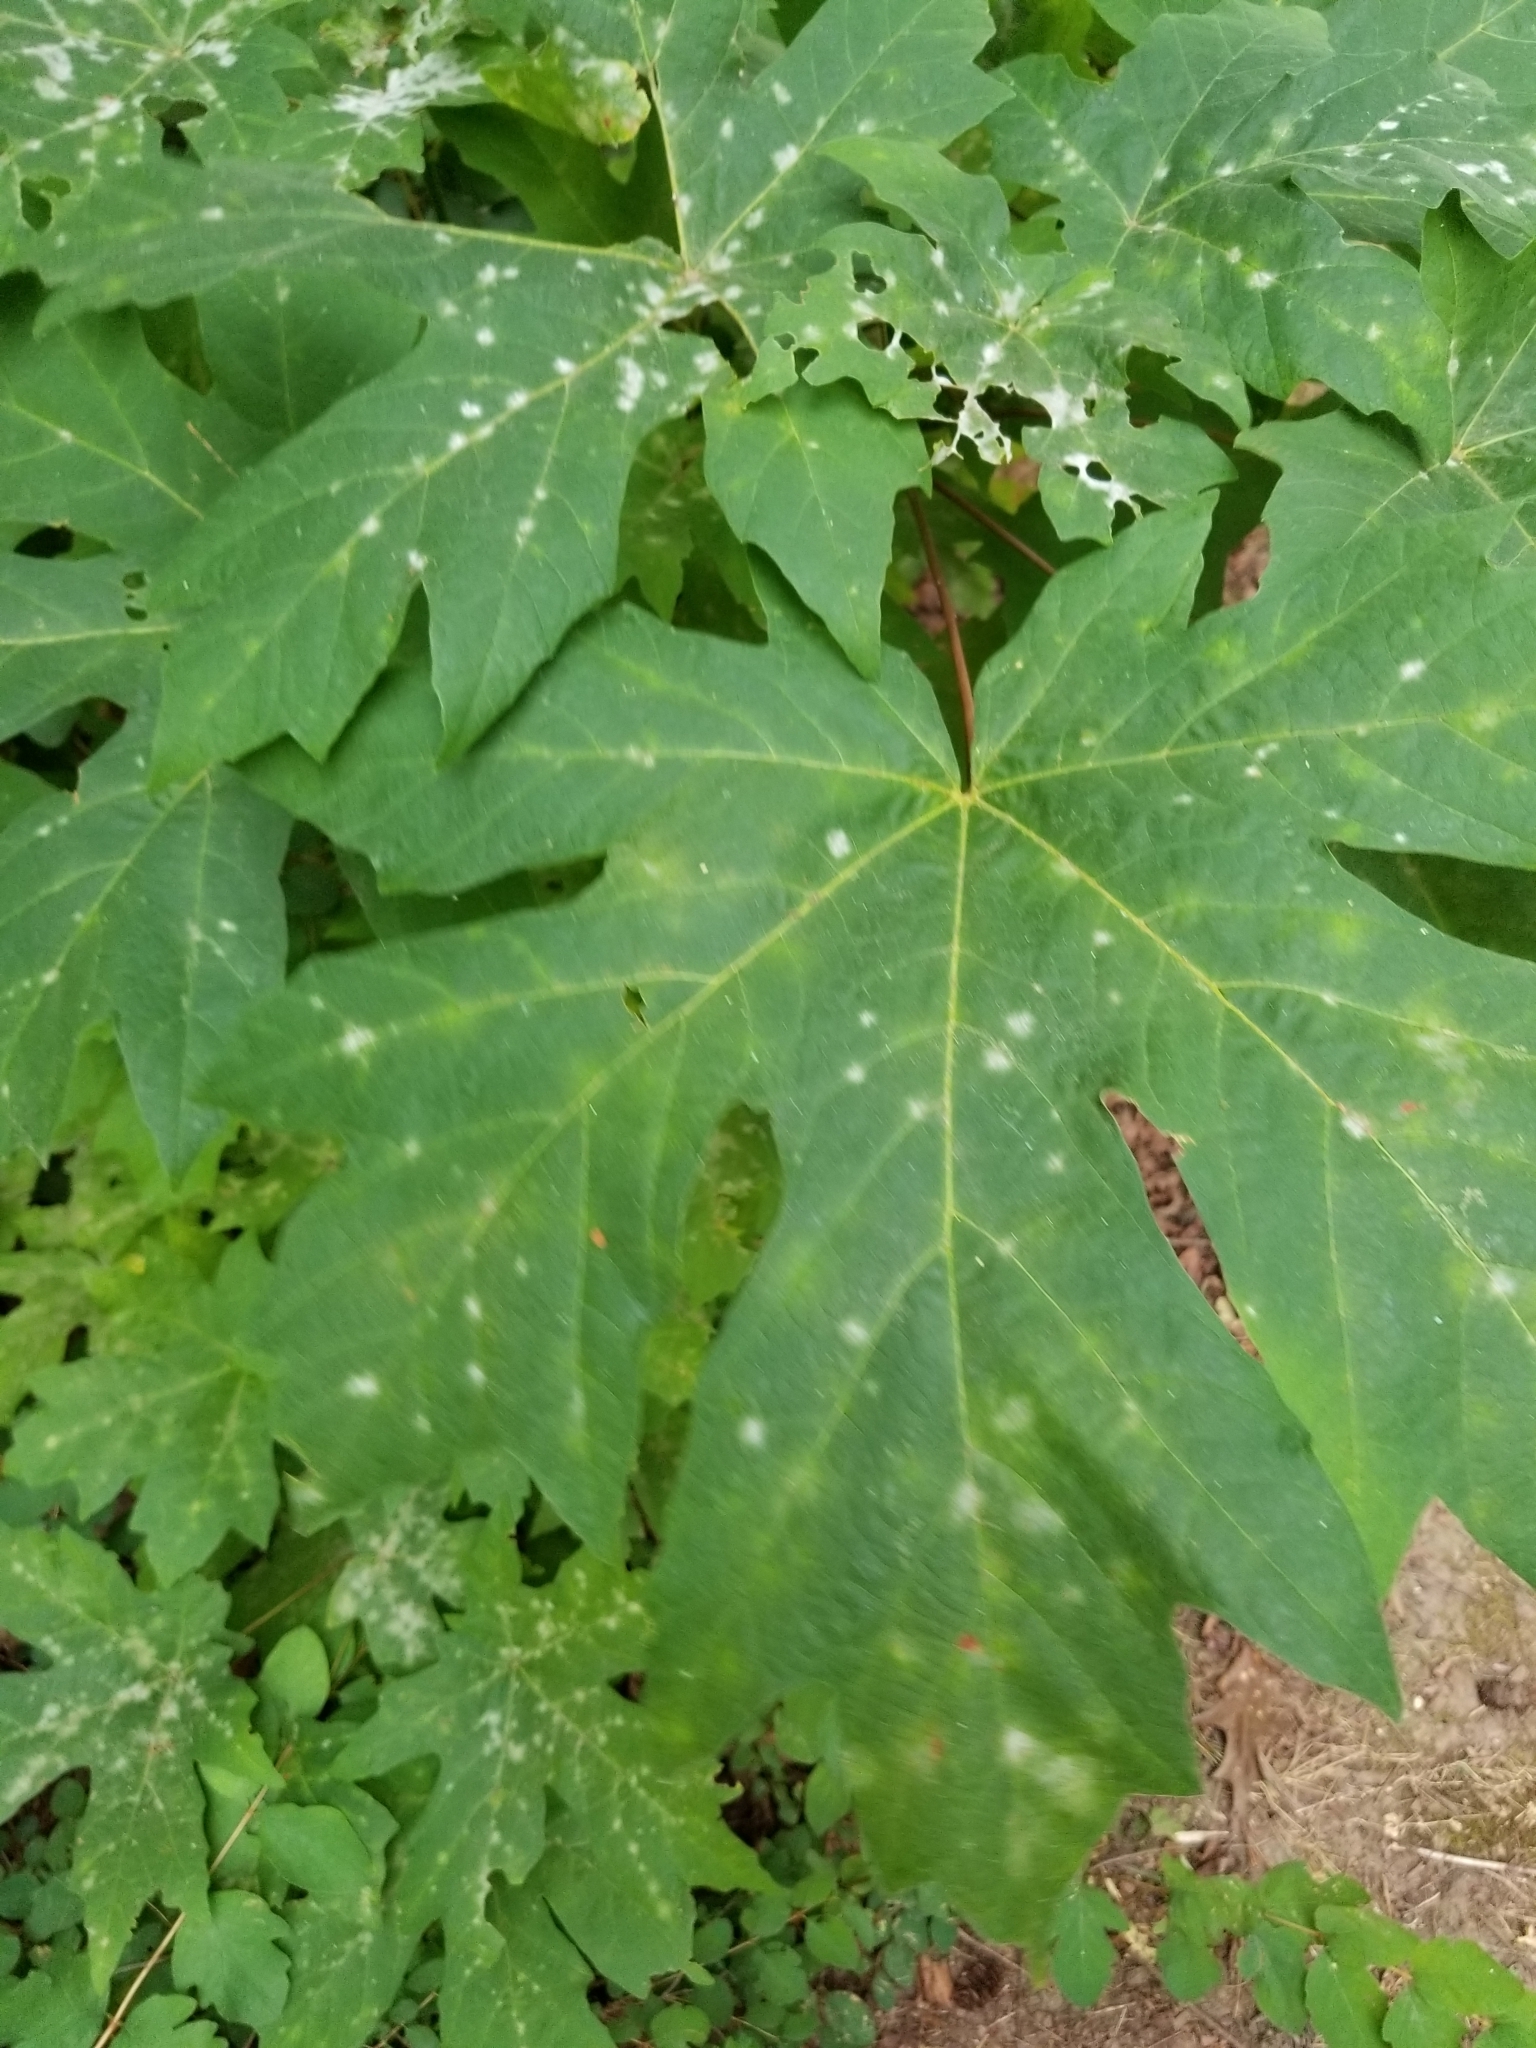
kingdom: Plantae
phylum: Tracheophyta
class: Magnoliopsida
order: Sapindales
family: Sapindaceae
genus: Acer
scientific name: Acer macrophyllum
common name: Oregon maple
